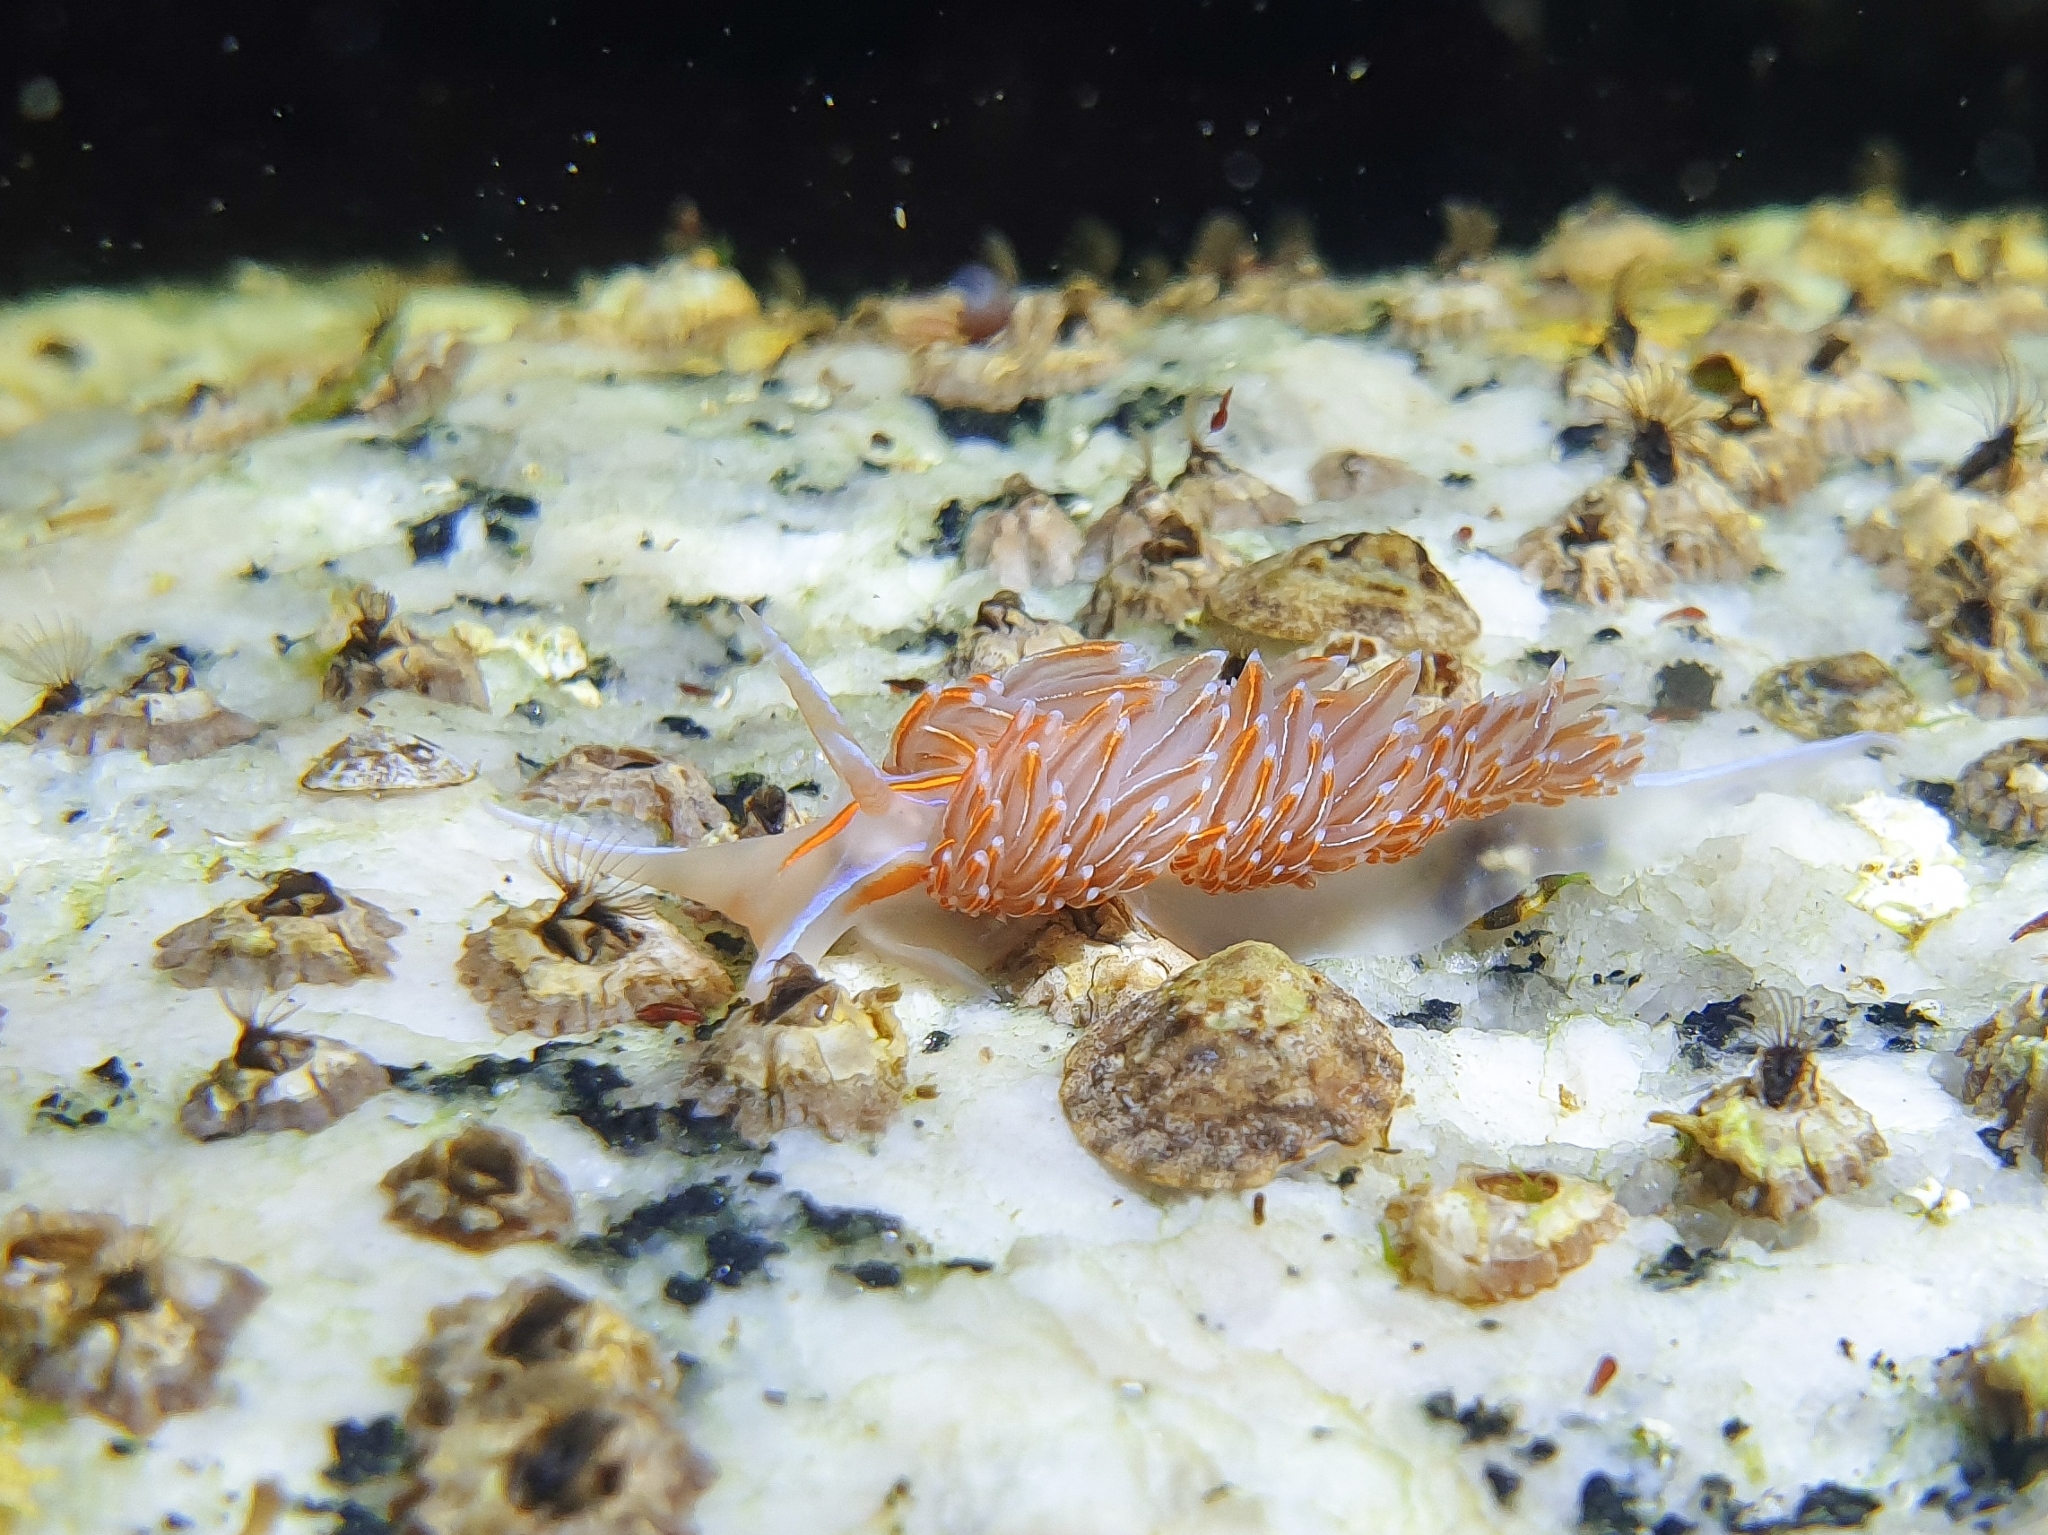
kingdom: Animalia
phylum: Mollusca
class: Gastropoda
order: Nudibranchia
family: Myrrhinidae
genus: Hermissenda
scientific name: Hermissenda emurai
